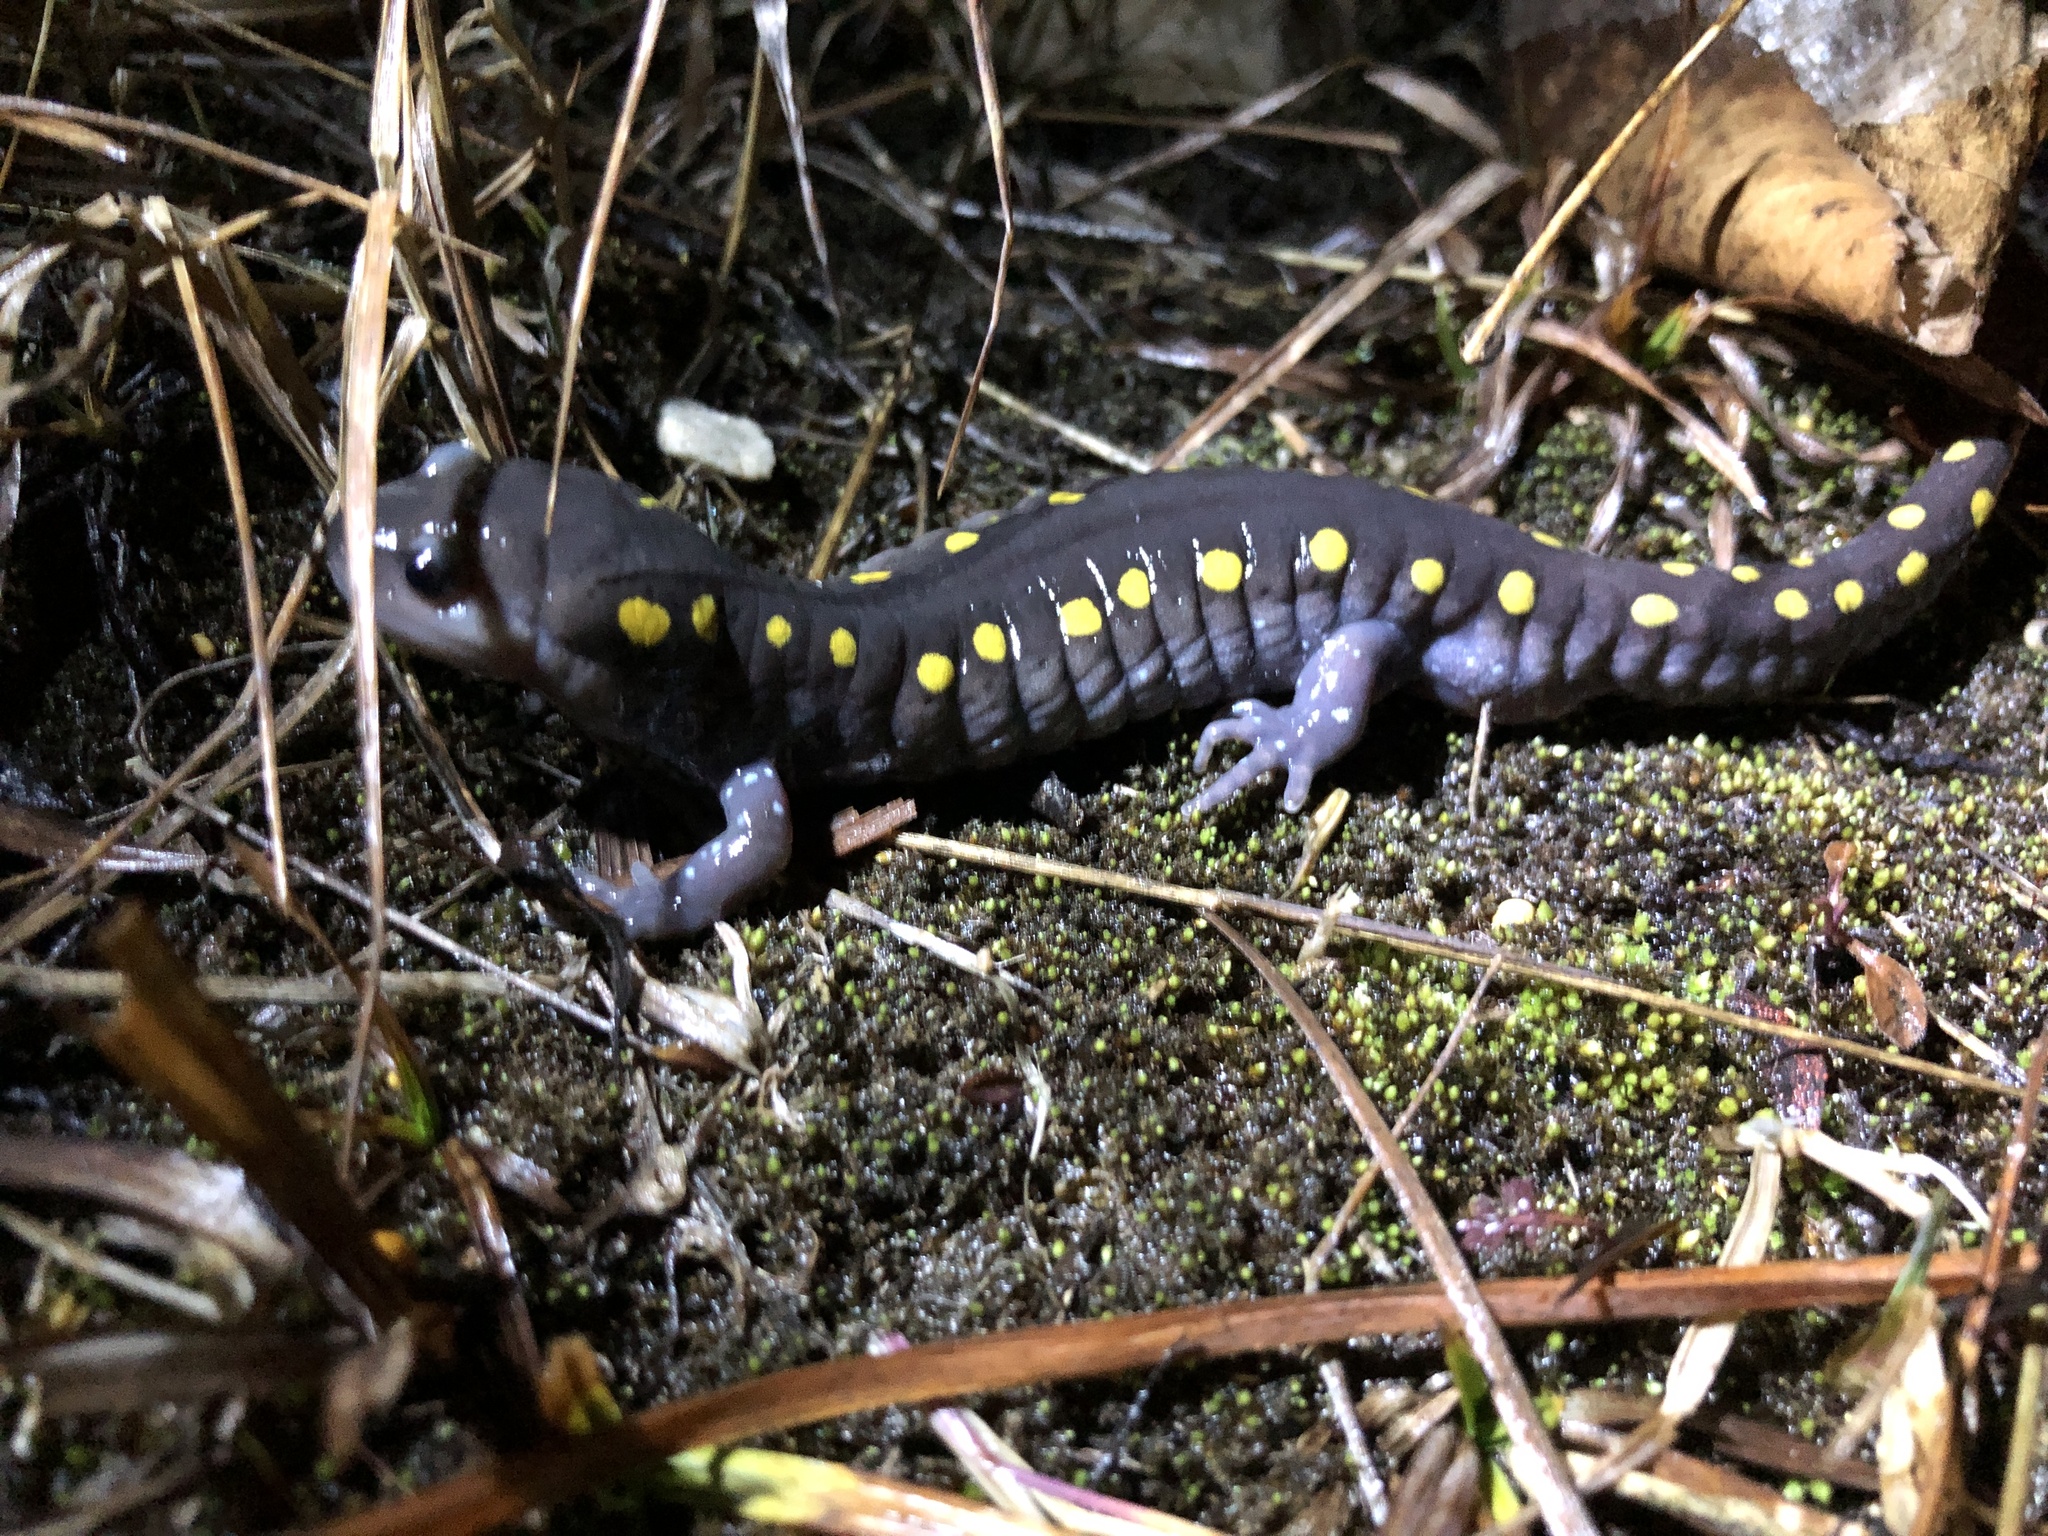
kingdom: Animalia
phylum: Chordata
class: Amphibia
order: Caudata
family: Ambystomatidae
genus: Ambystoma
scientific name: Ambystoma maculatum
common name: Spotted salamander
